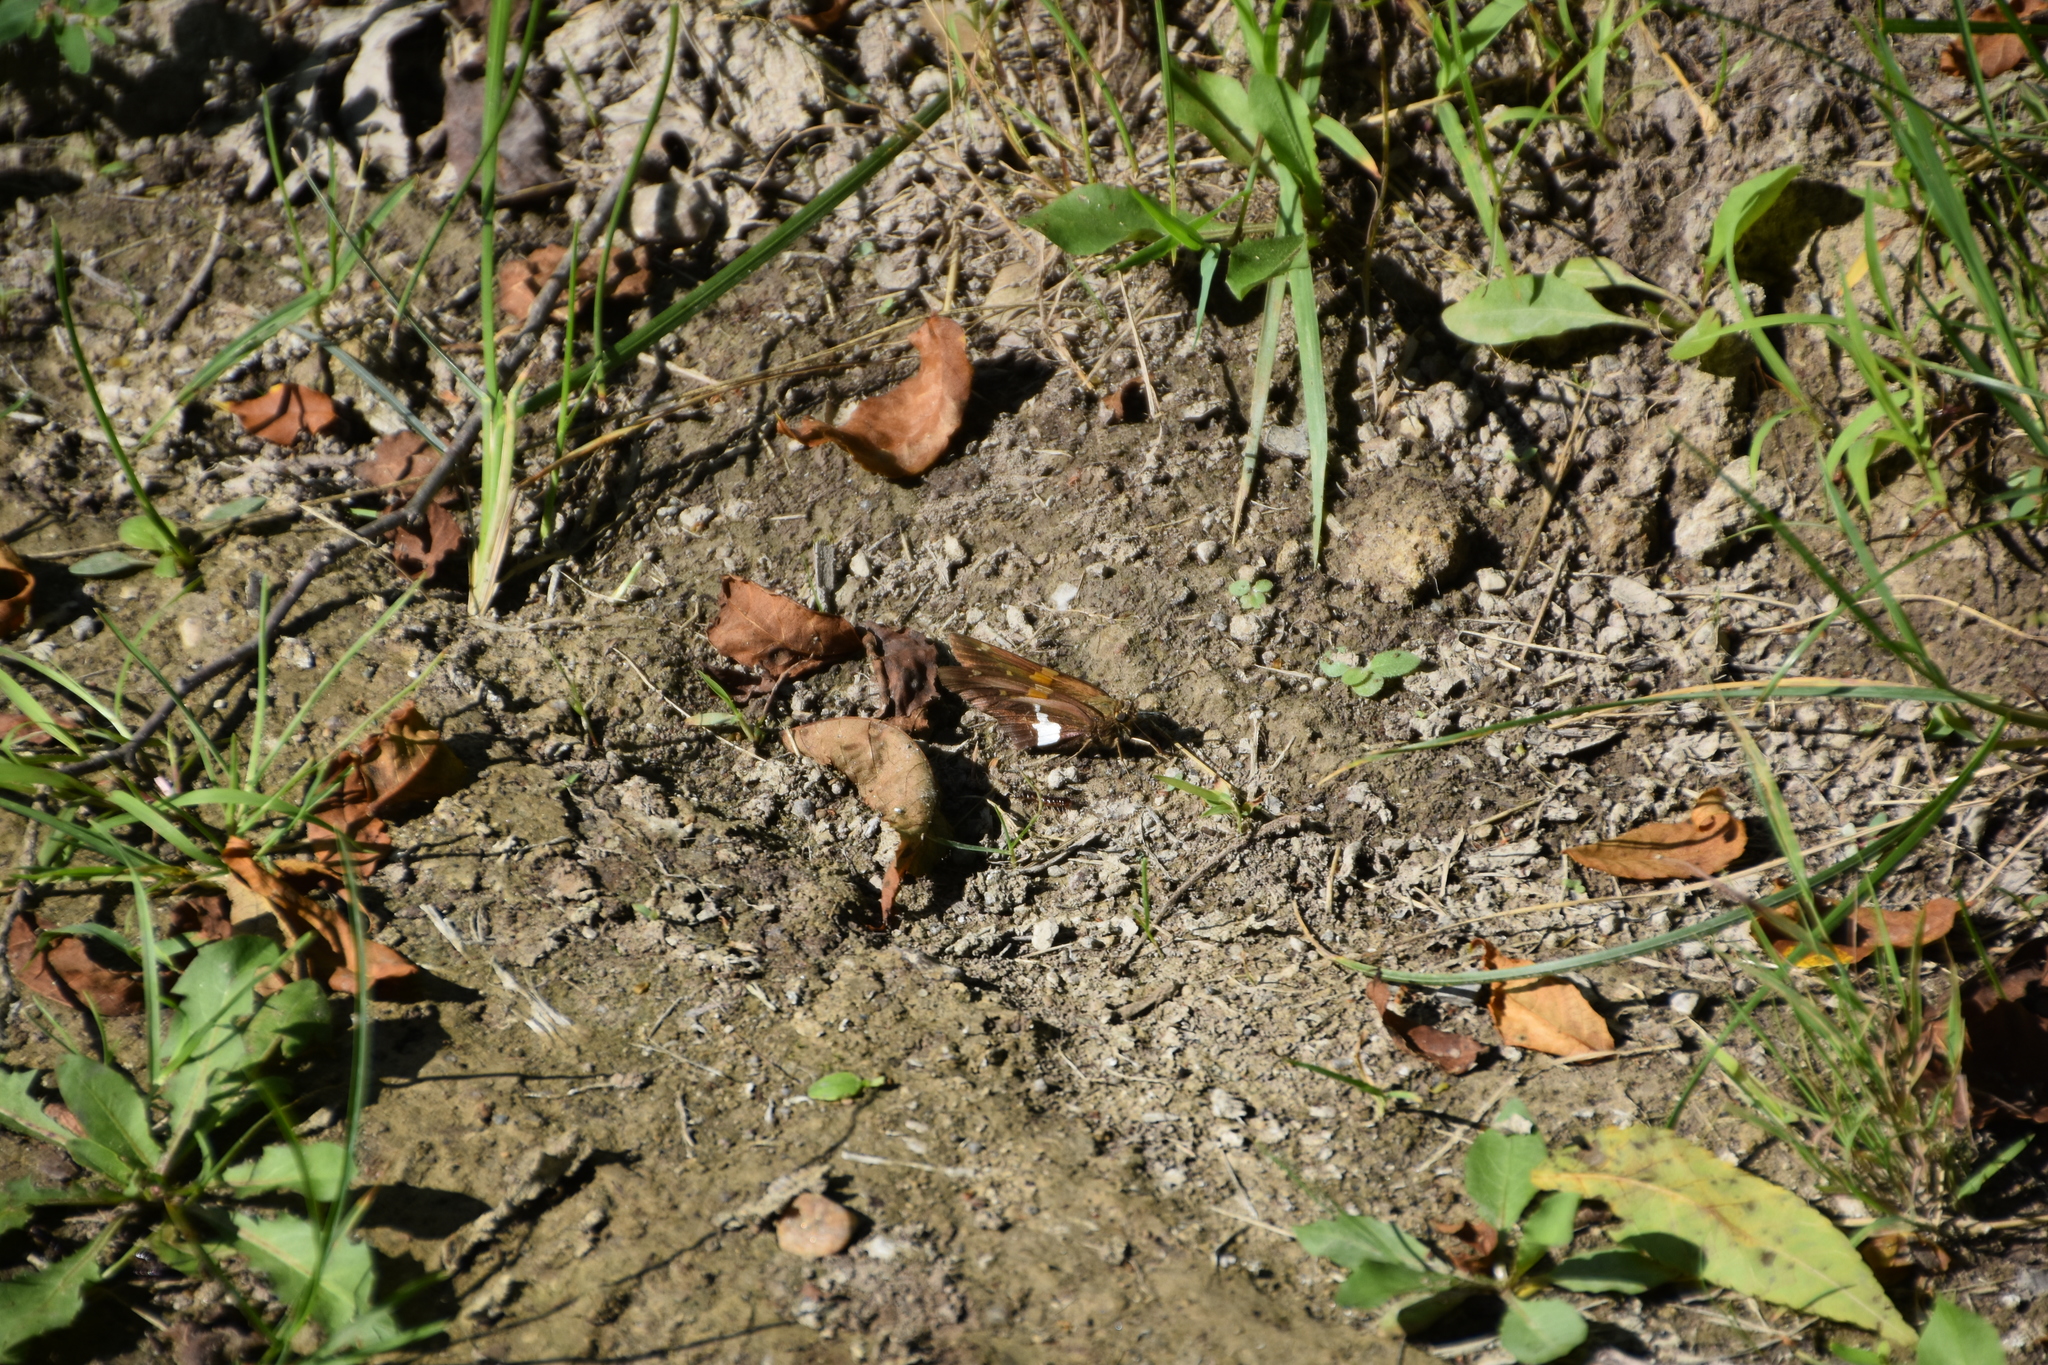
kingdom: Animalia
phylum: Arthropoda
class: Insecta
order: Lepidoptera
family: Hesperiidae
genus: Epargyreus
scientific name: Epargyreus clarus
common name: Silver-spotted skipper
